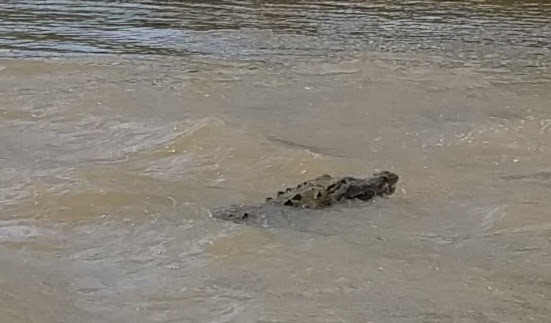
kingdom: Animalia
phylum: Chordata
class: Crocodylia
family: Crocodylidae
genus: Crocodylus
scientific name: Crocodylus acutus
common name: American crocodile
